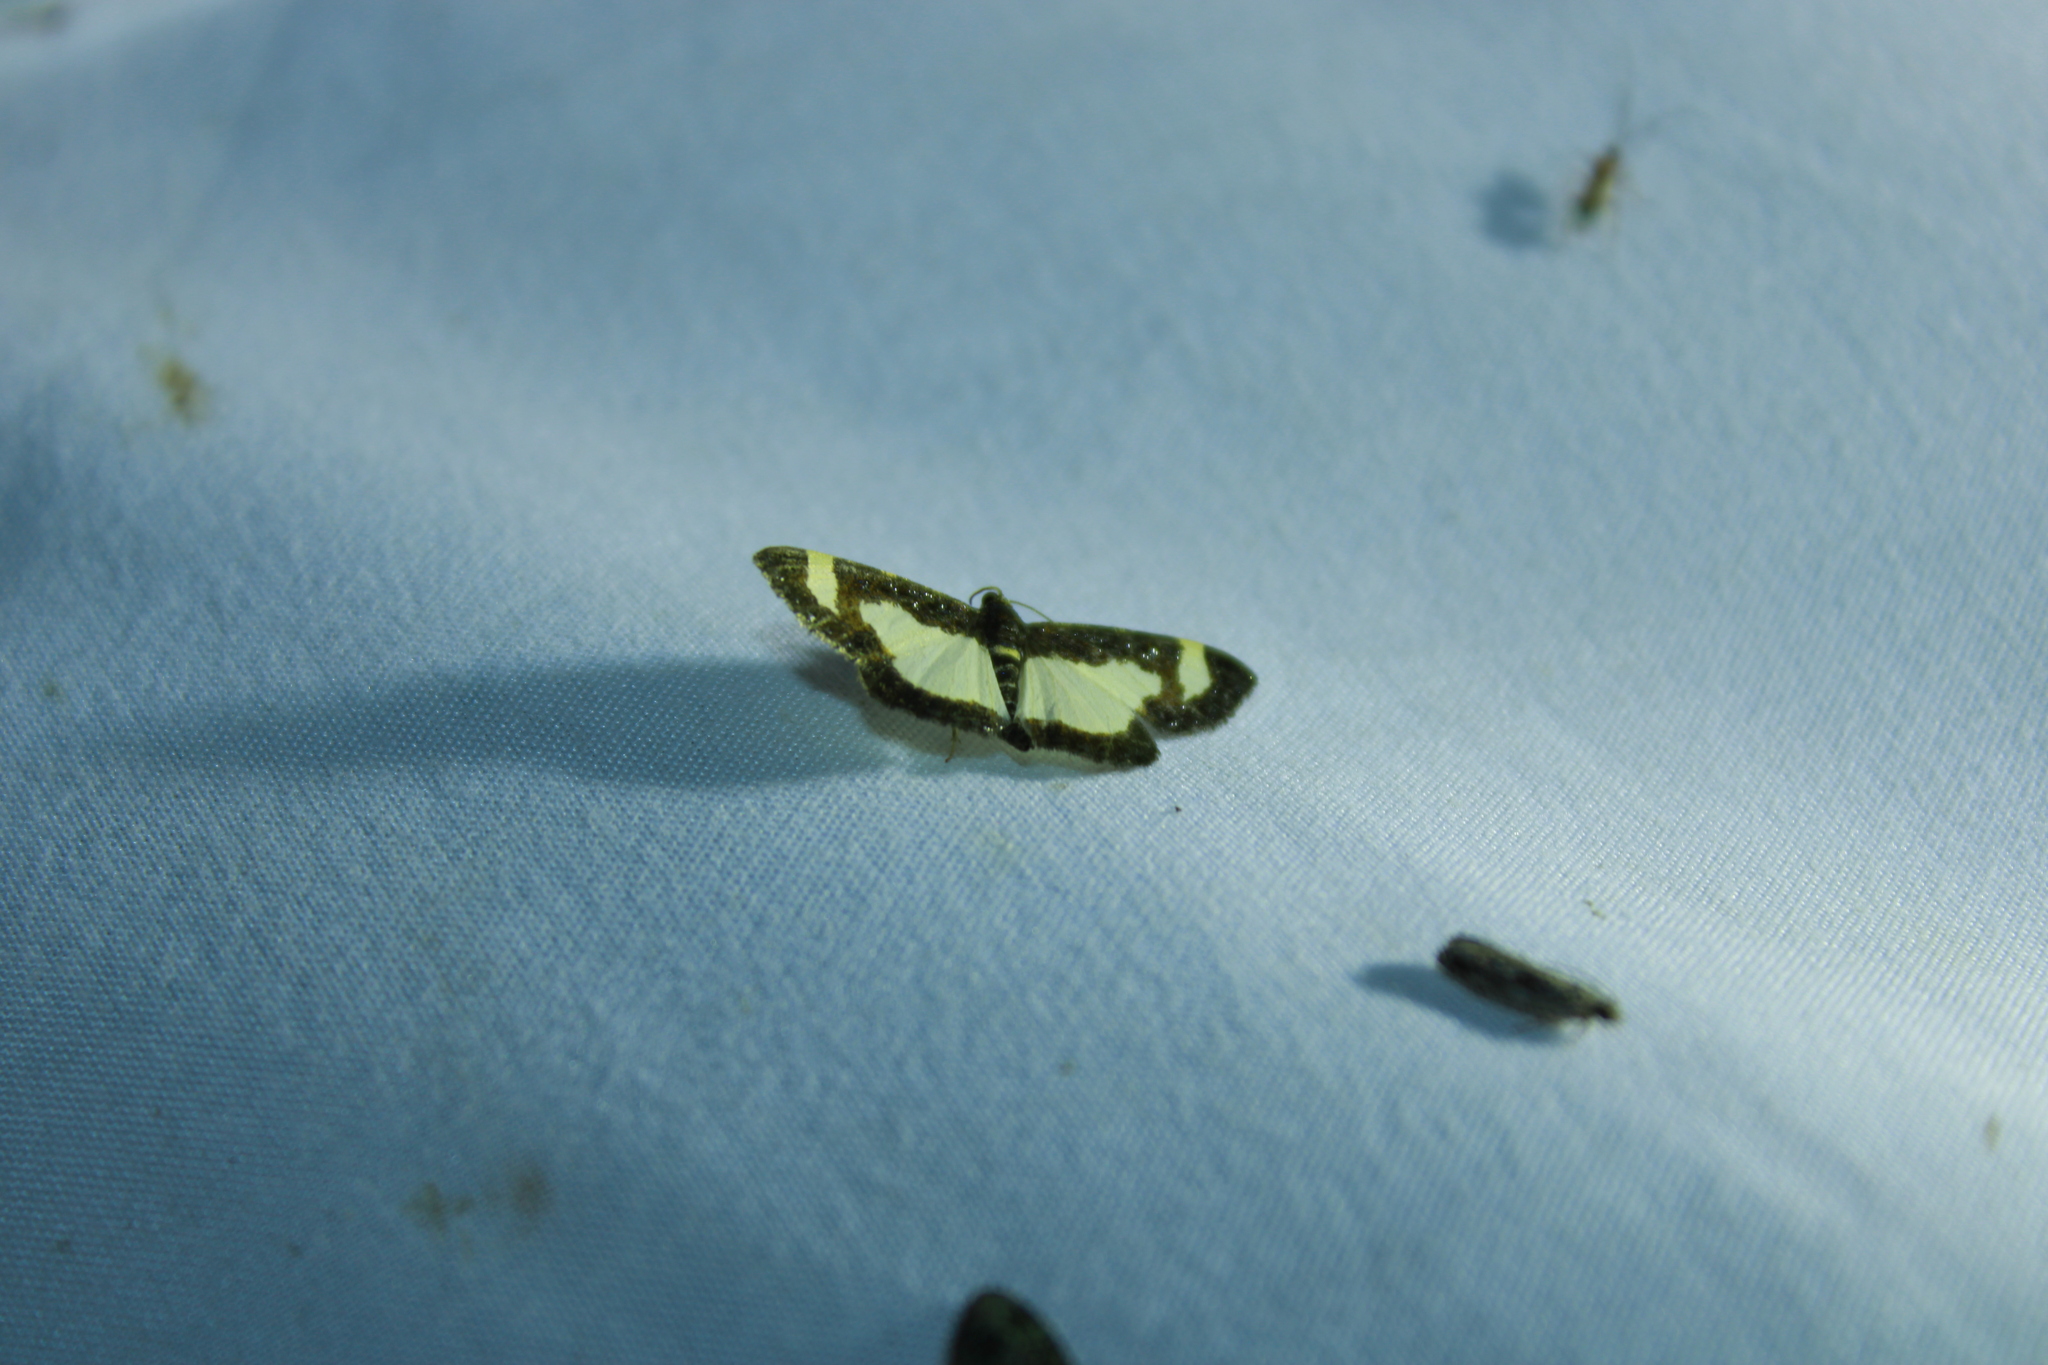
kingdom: Animalia
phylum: Arthropoda
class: Insecta
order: Lepidoptera
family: Geometridae
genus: Heliomata
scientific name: Heliomata cycladata
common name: Common spring moth
